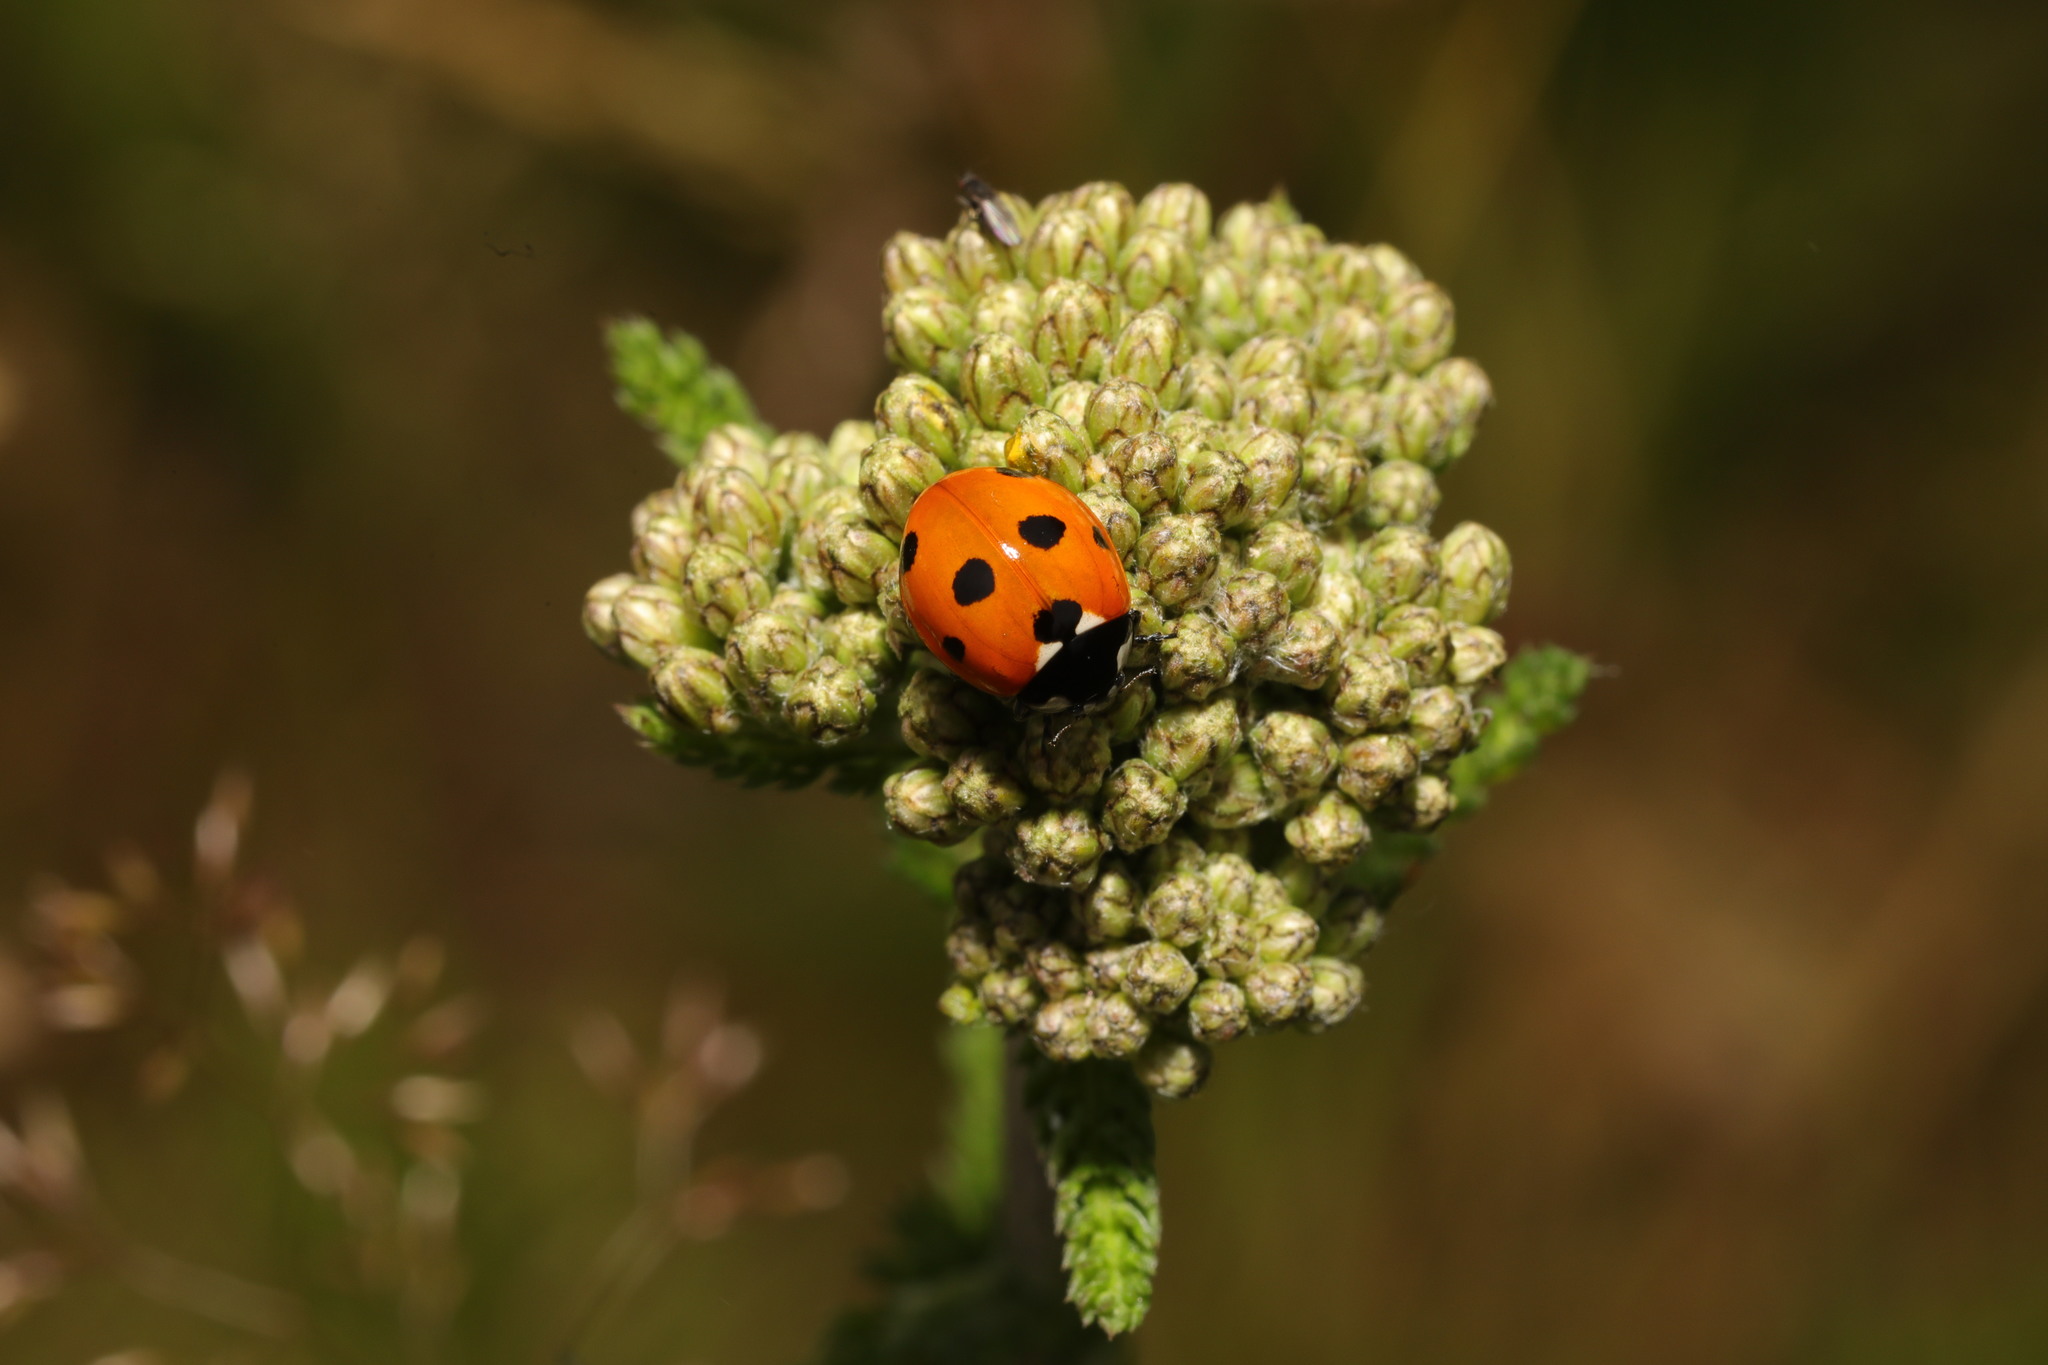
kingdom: Animalia
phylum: Arthropoda
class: Insecta
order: Coleoptera
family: Coccinellidae
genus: Coccinella
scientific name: Coccinella septempunctata
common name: Sevenspotted lady beetle
